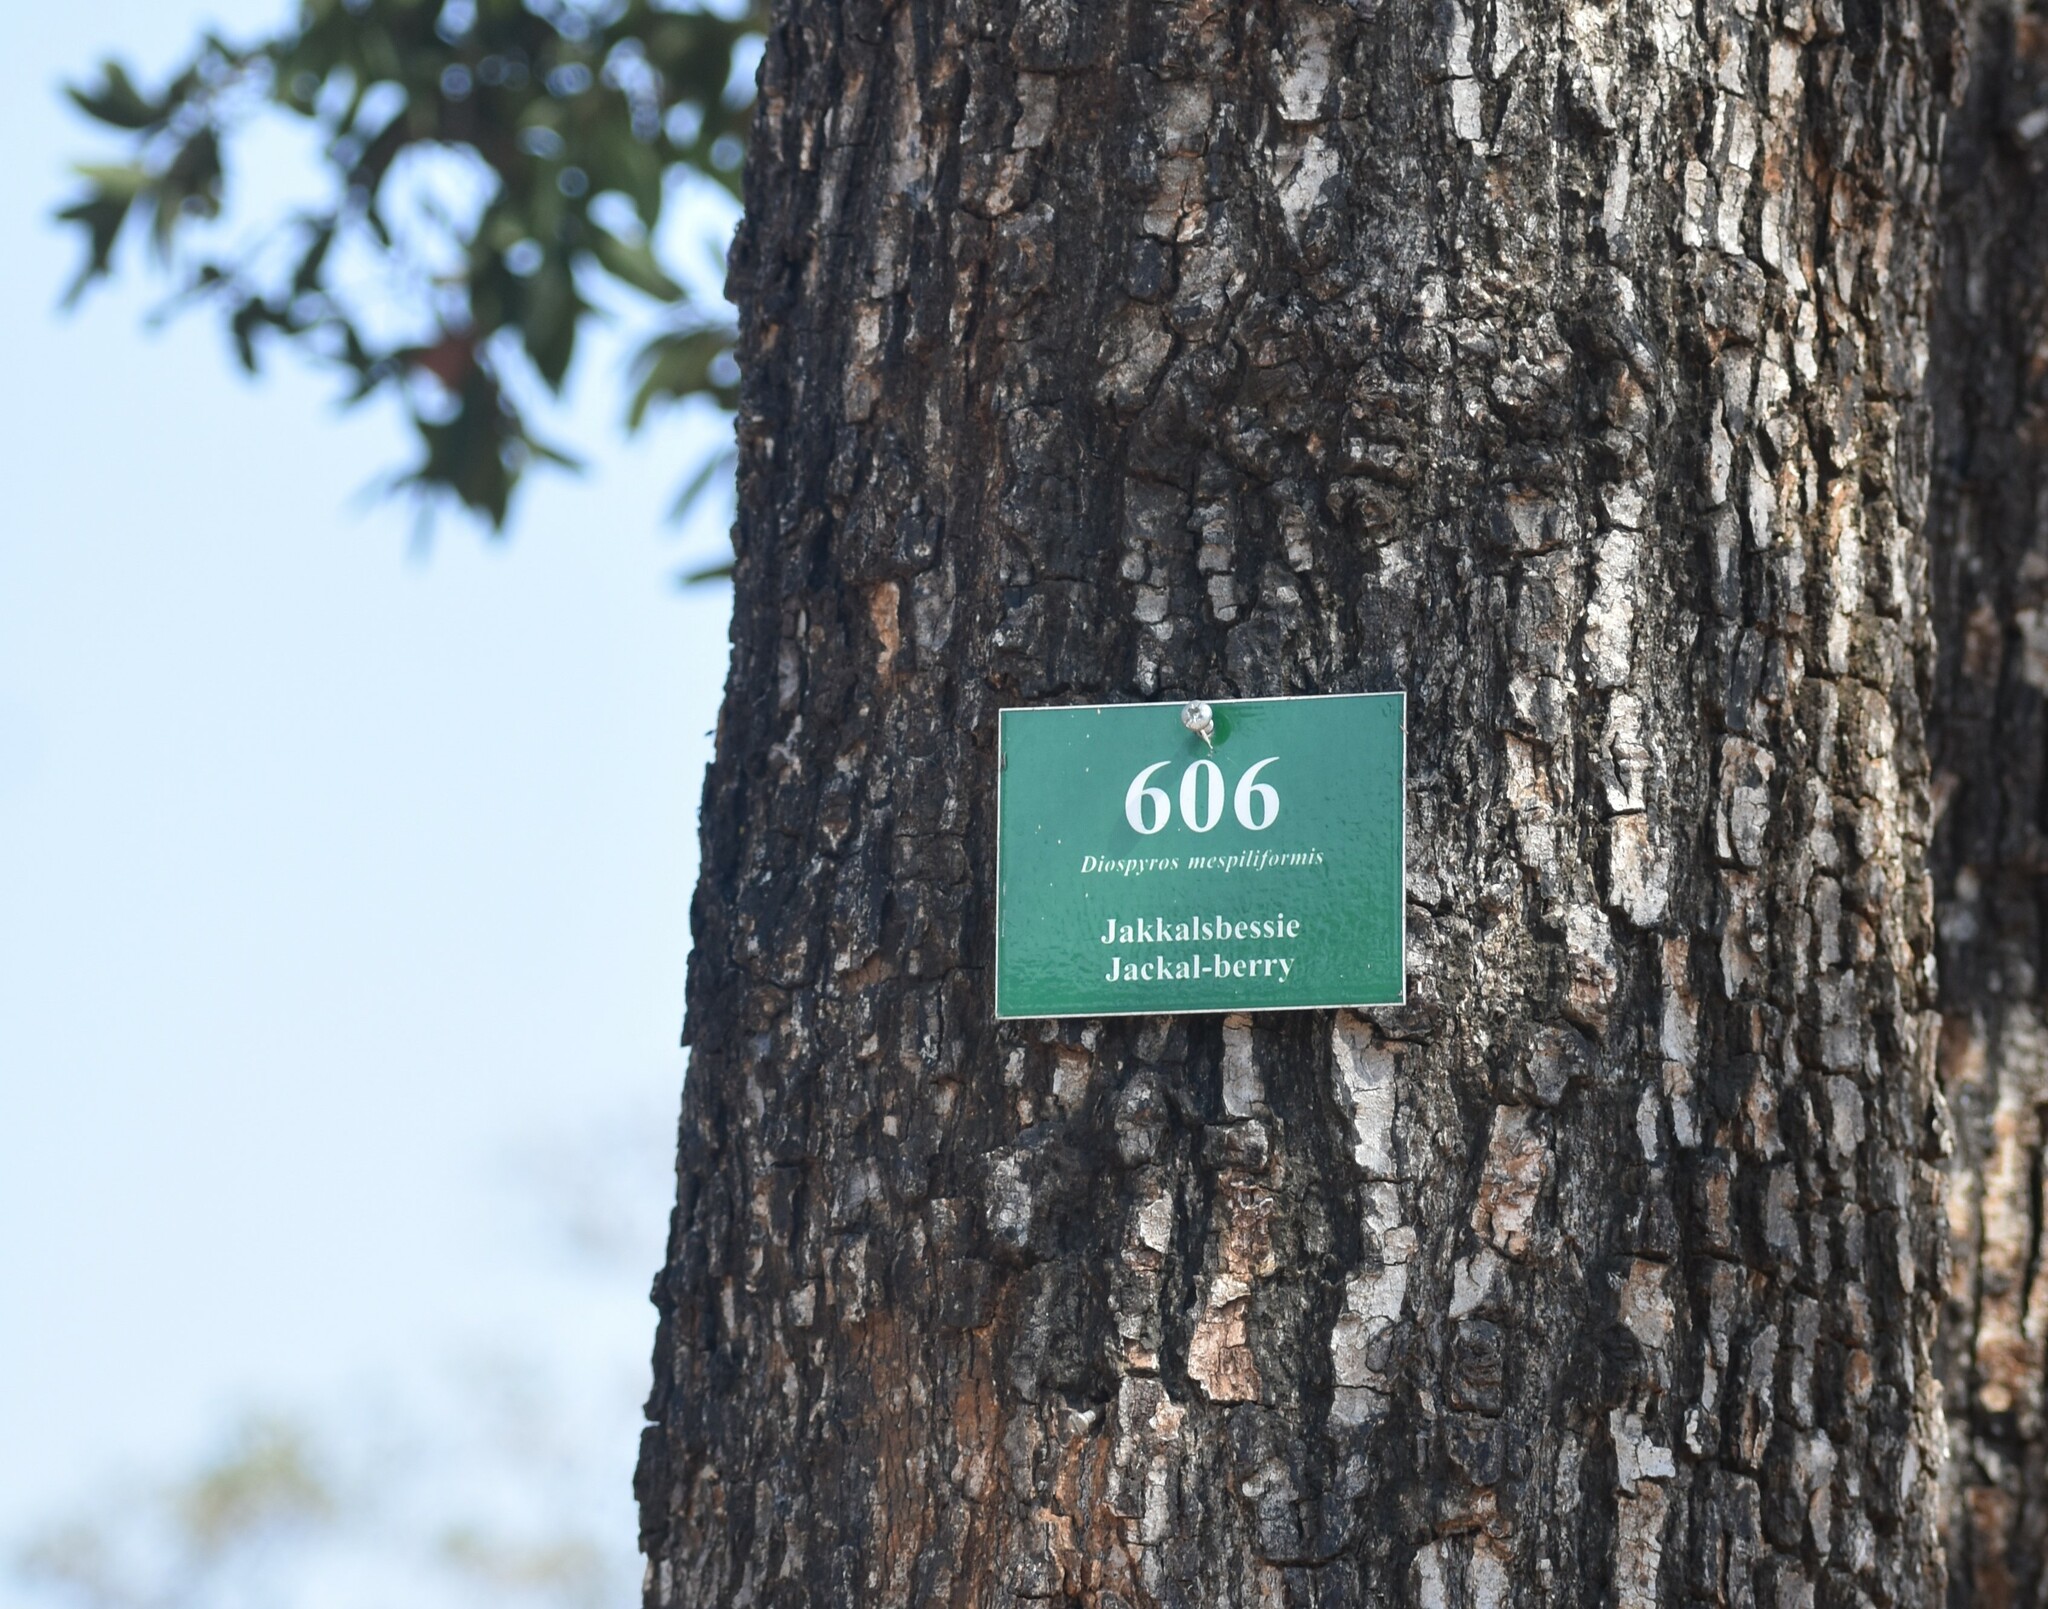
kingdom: Plantae
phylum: Tracheophyta
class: Magnoliopsida
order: Ericales
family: Ebenaceae
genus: Diospyros
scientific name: Diospyros mespiliformis
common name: Ebony diospyros
